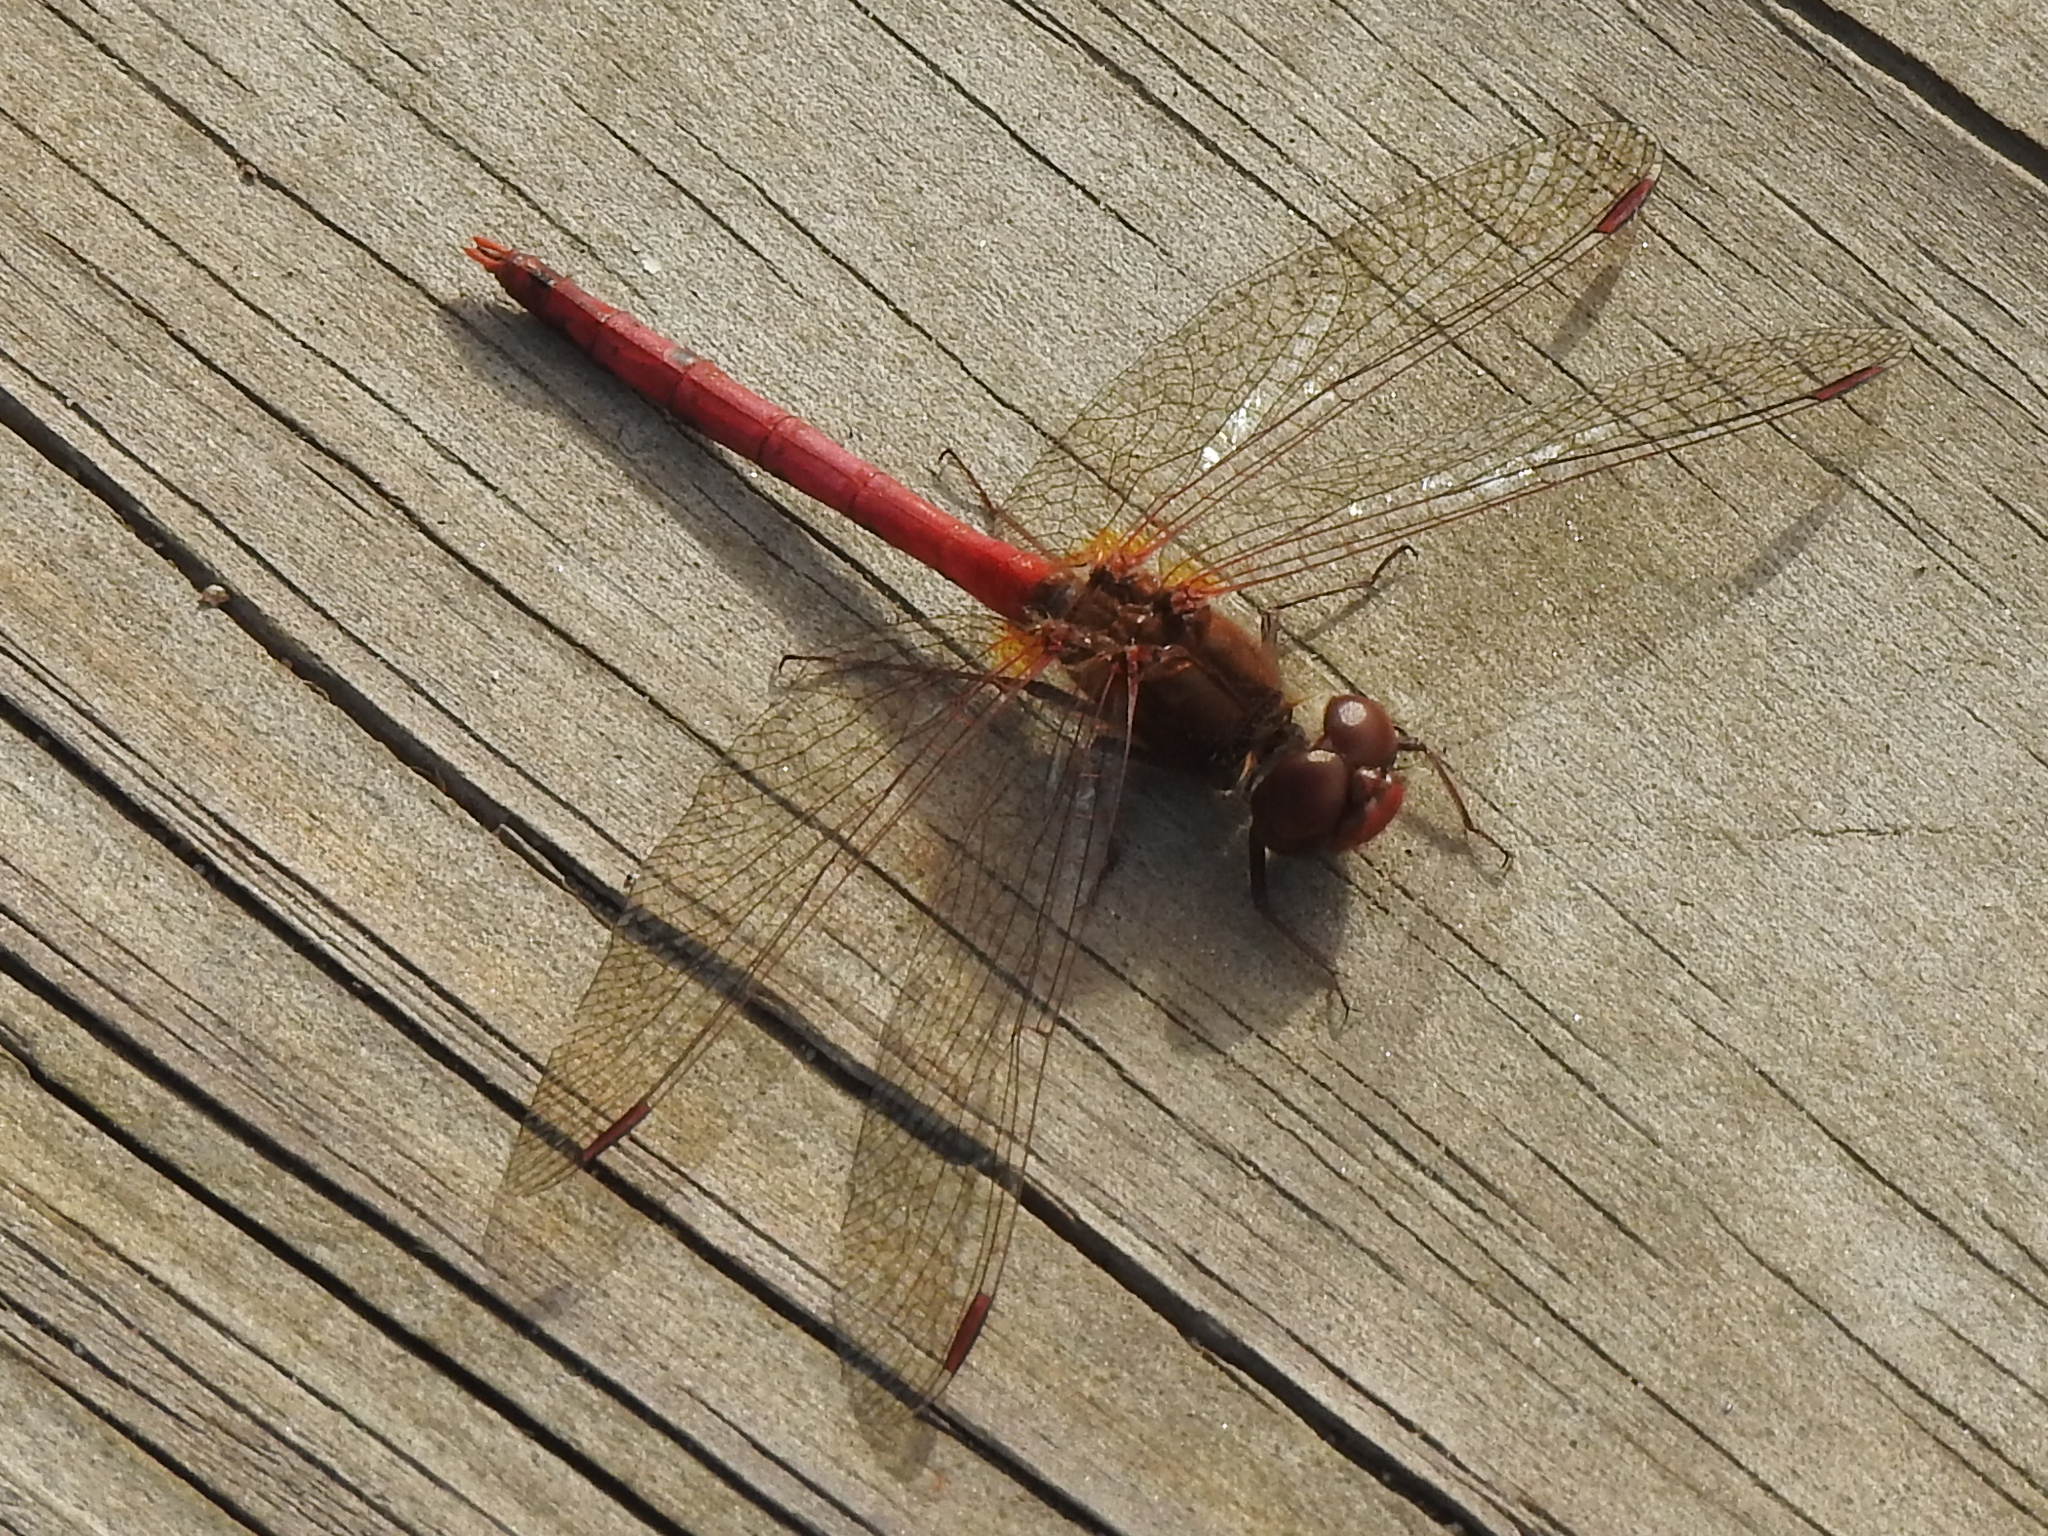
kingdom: Animalia
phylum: Arthropoda
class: Insecta
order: Odonata
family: Libellulidae
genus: Sympetrum
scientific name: Sympetrum vicinum
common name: Autumn meadowhawk
